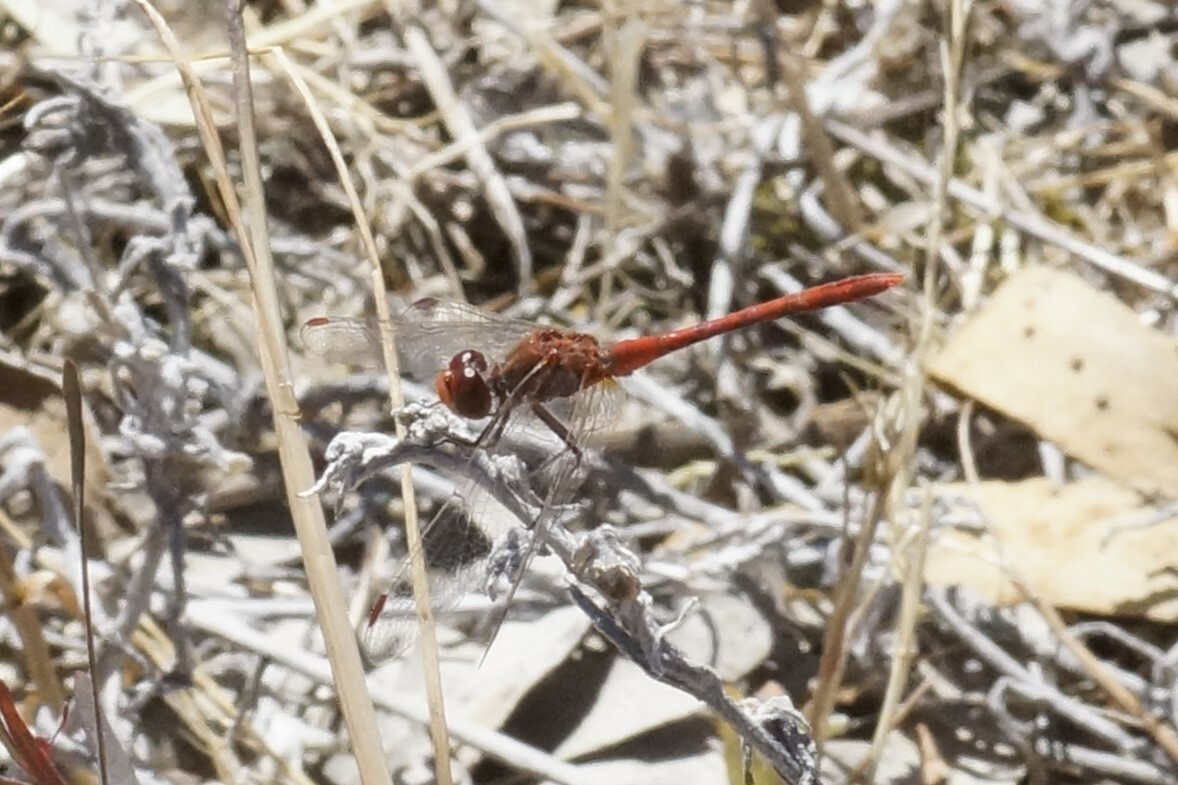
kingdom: Animalia
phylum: Arthropoda
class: Insecta
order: Odonata
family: Libellulidae
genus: Diplacodes
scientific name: Diplacodes bipunctata
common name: Red percher dragonfly
